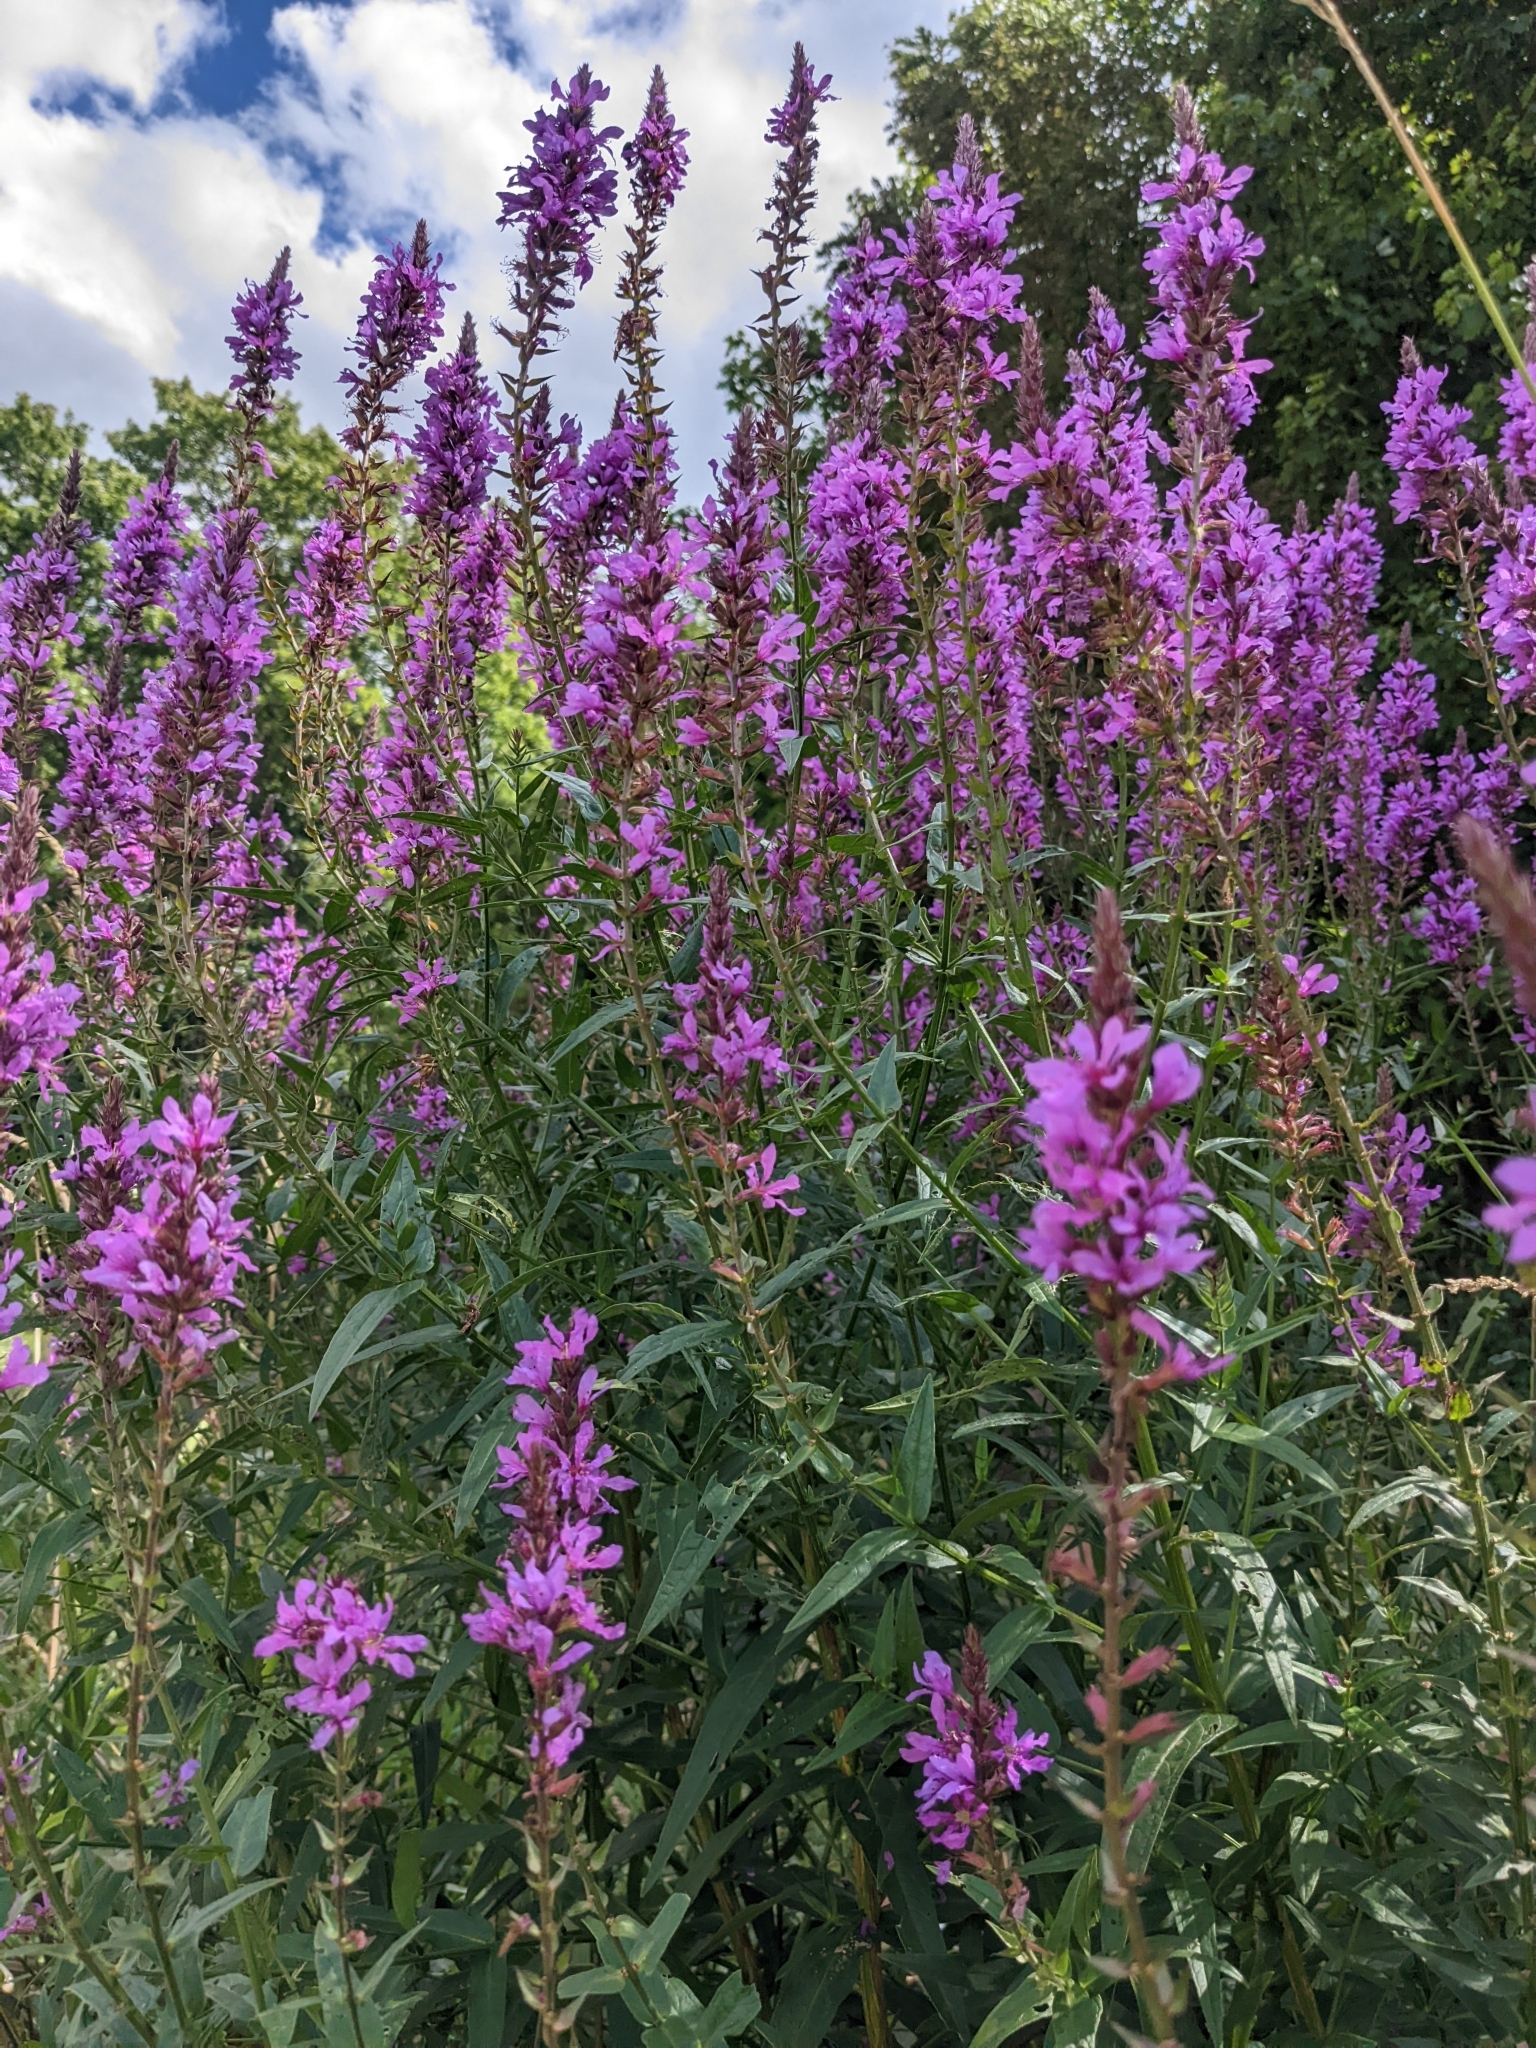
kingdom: Plantae
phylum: Tracheophyta
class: Magnoliopsida
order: Myrtales
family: Lythraceae
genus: Lythrum
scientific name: Lythrum salicaria
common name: Purple loosestrife
